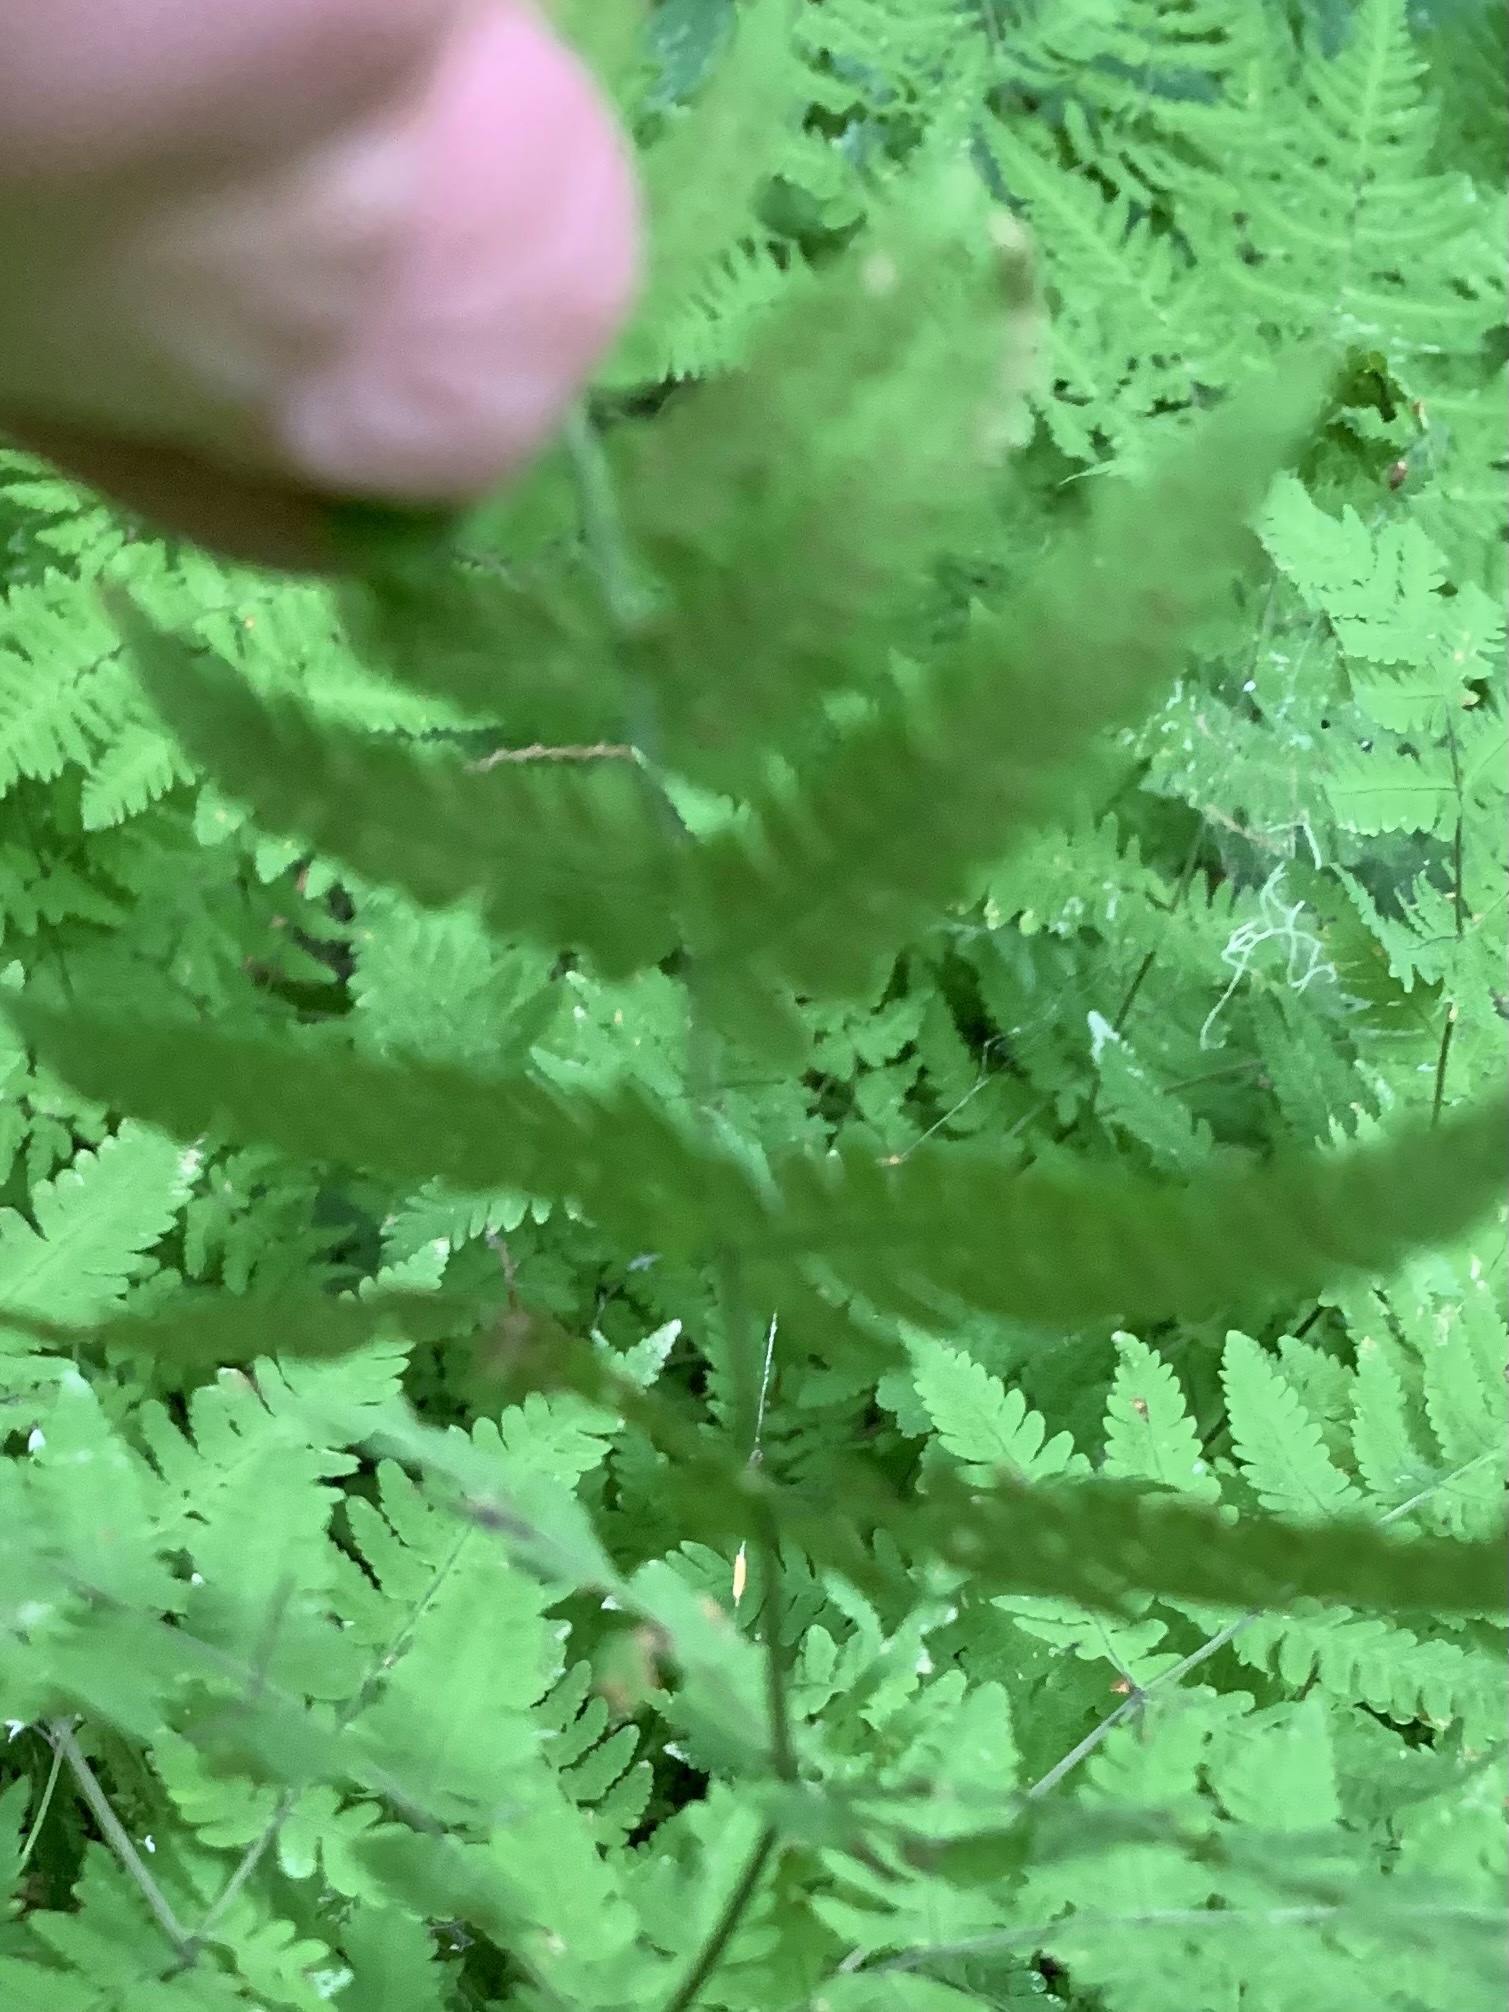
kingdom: Plantae
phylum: Tracheophyta
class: Polypodiopsida
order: Polypodiales
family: Cystopteridaceae
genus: Gymnocarpium
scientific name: Gymnocarpium disjunctum
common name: Western oak fern
